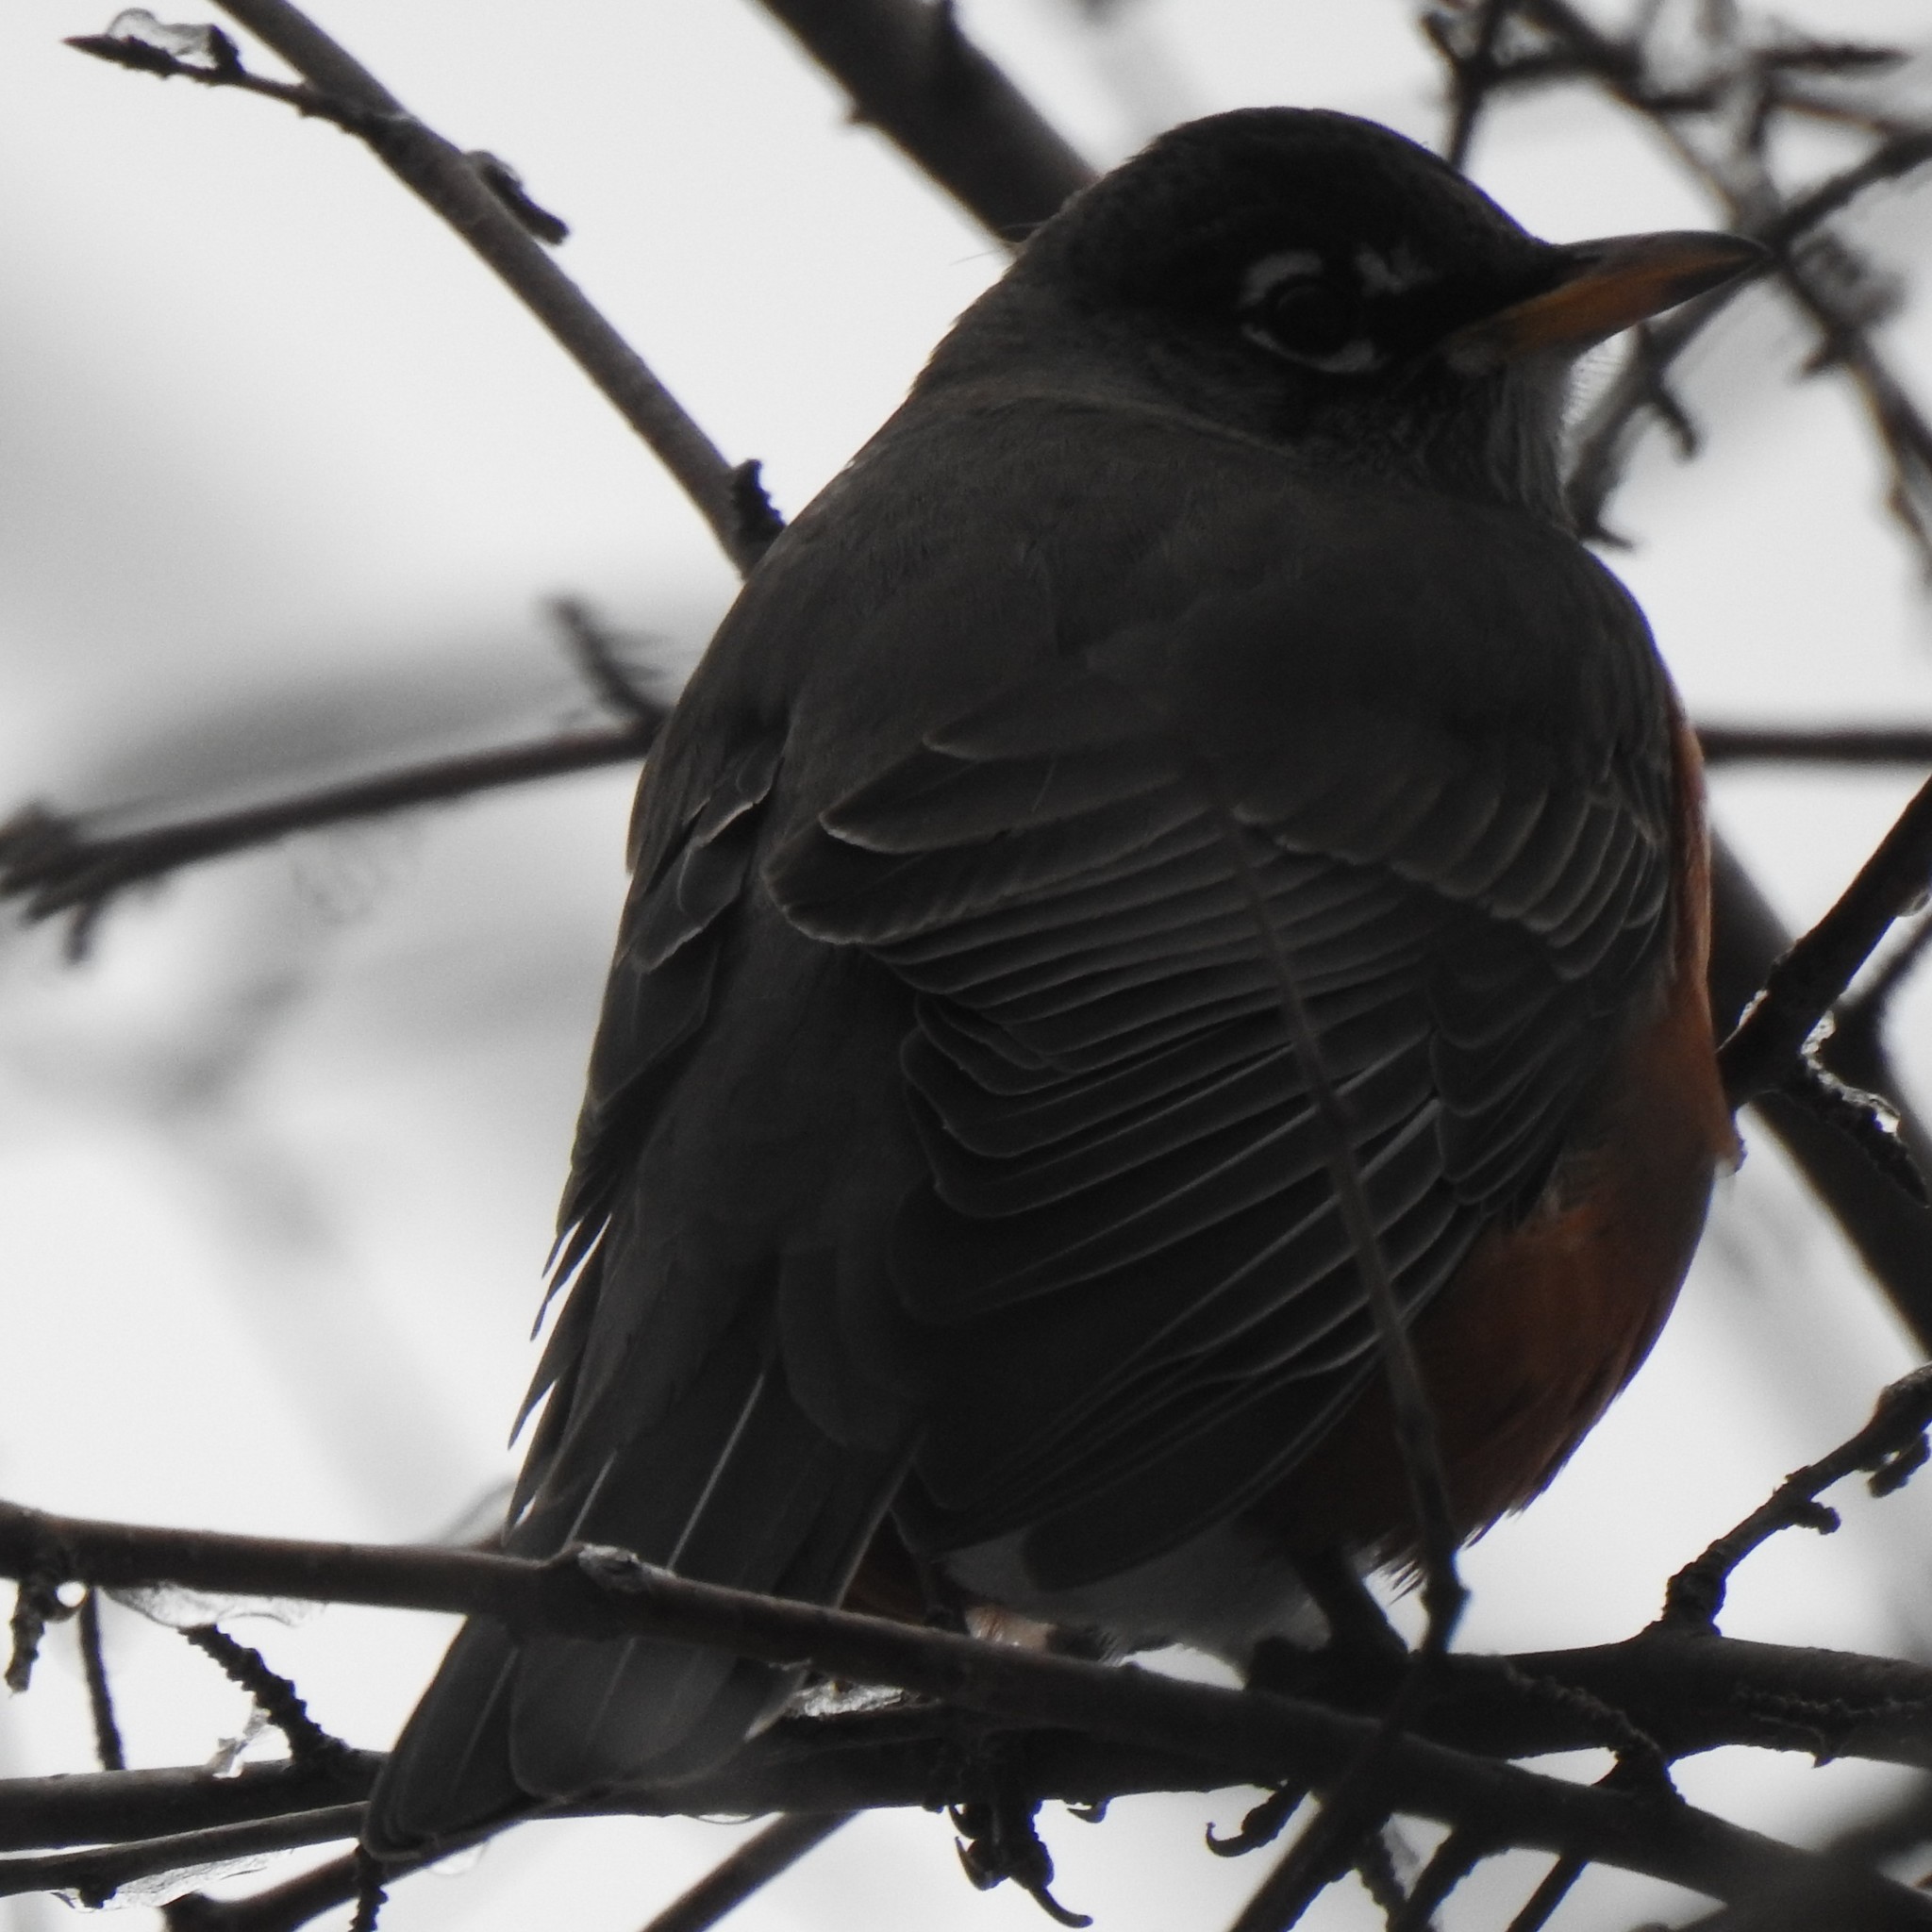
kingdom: Animalia
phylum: Chordata
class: Aves
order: Passeriformes
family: Turdidae
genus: Turdus
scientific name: Turdus migratorius
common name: American robin
